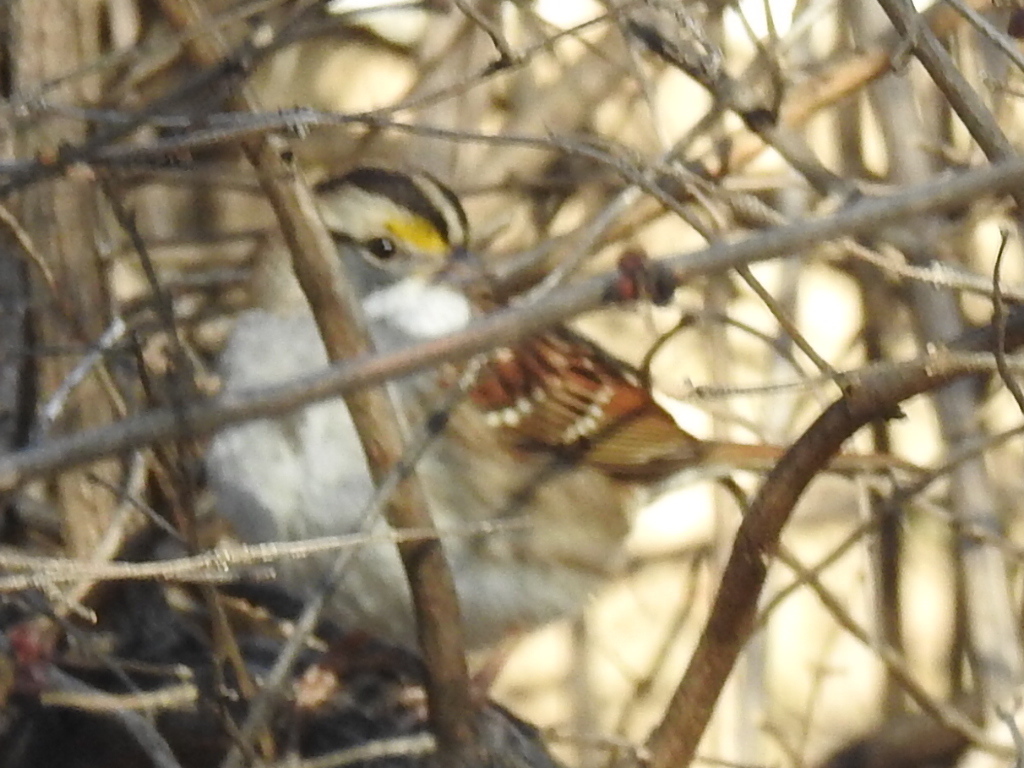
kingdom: Animalia
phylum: Chordata
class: Aves
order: Passeriformes
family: Passerellidae
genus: Zonotrichia
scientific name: Zonotrichia albicollis
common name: White-throated sparrow
